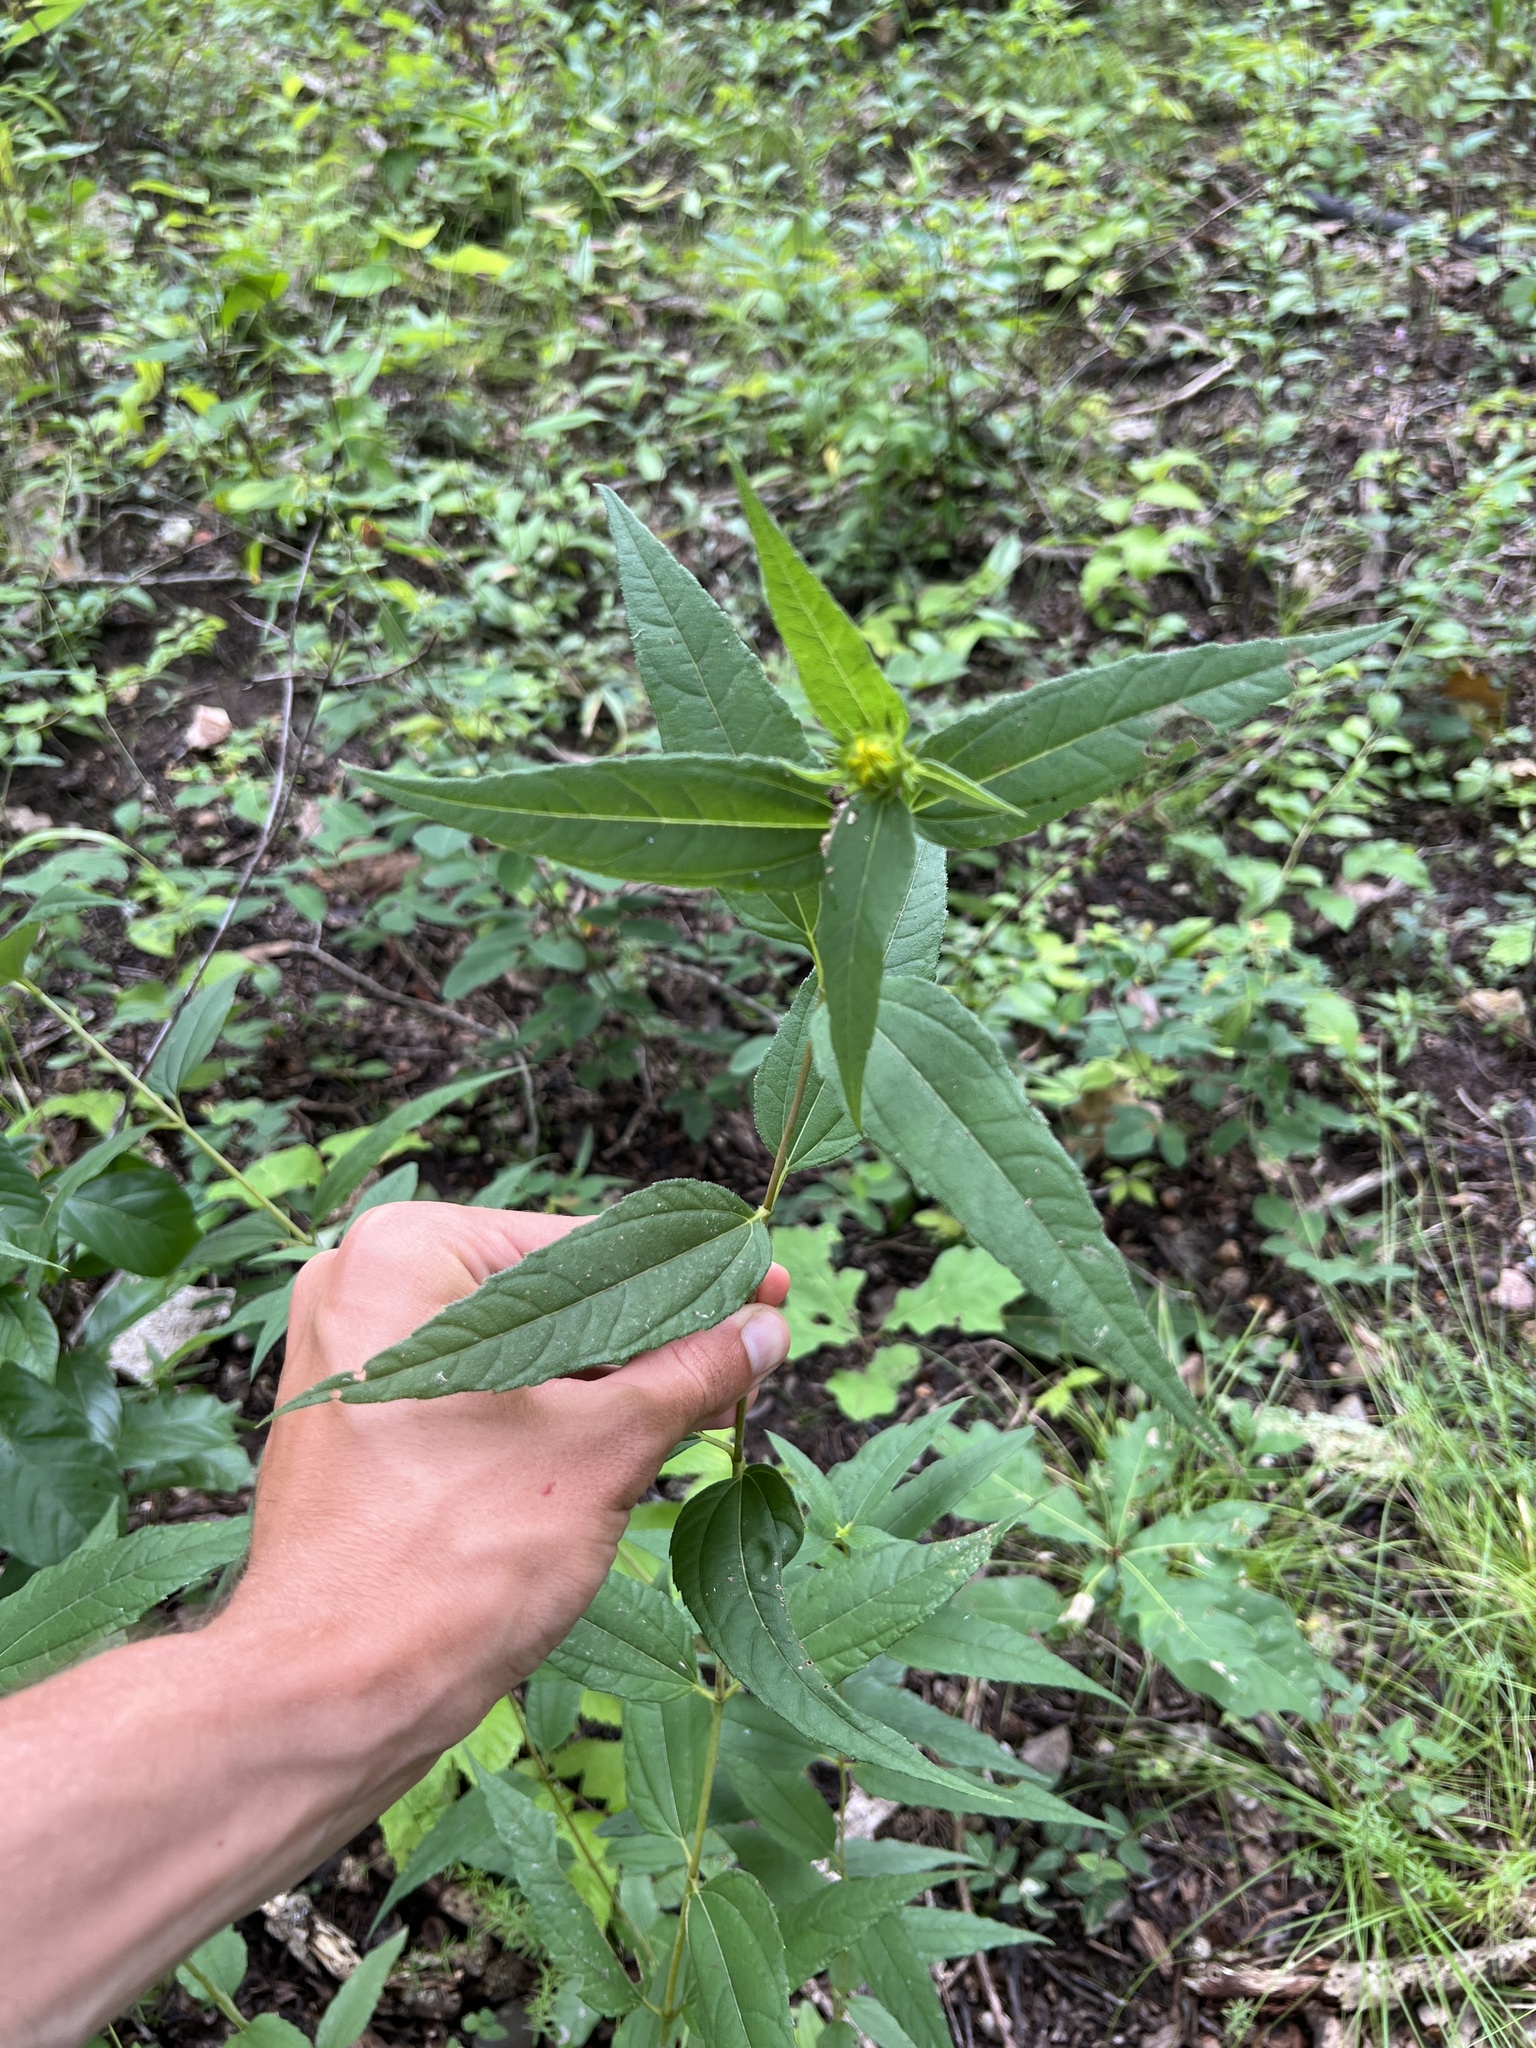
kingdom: Plantae
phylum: Tracheophyta
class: Magnoliopsida
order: Asterales
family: Asteraceae
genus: Helianthus
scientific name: Helianthus hirsutus
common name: Hairy sunflower
